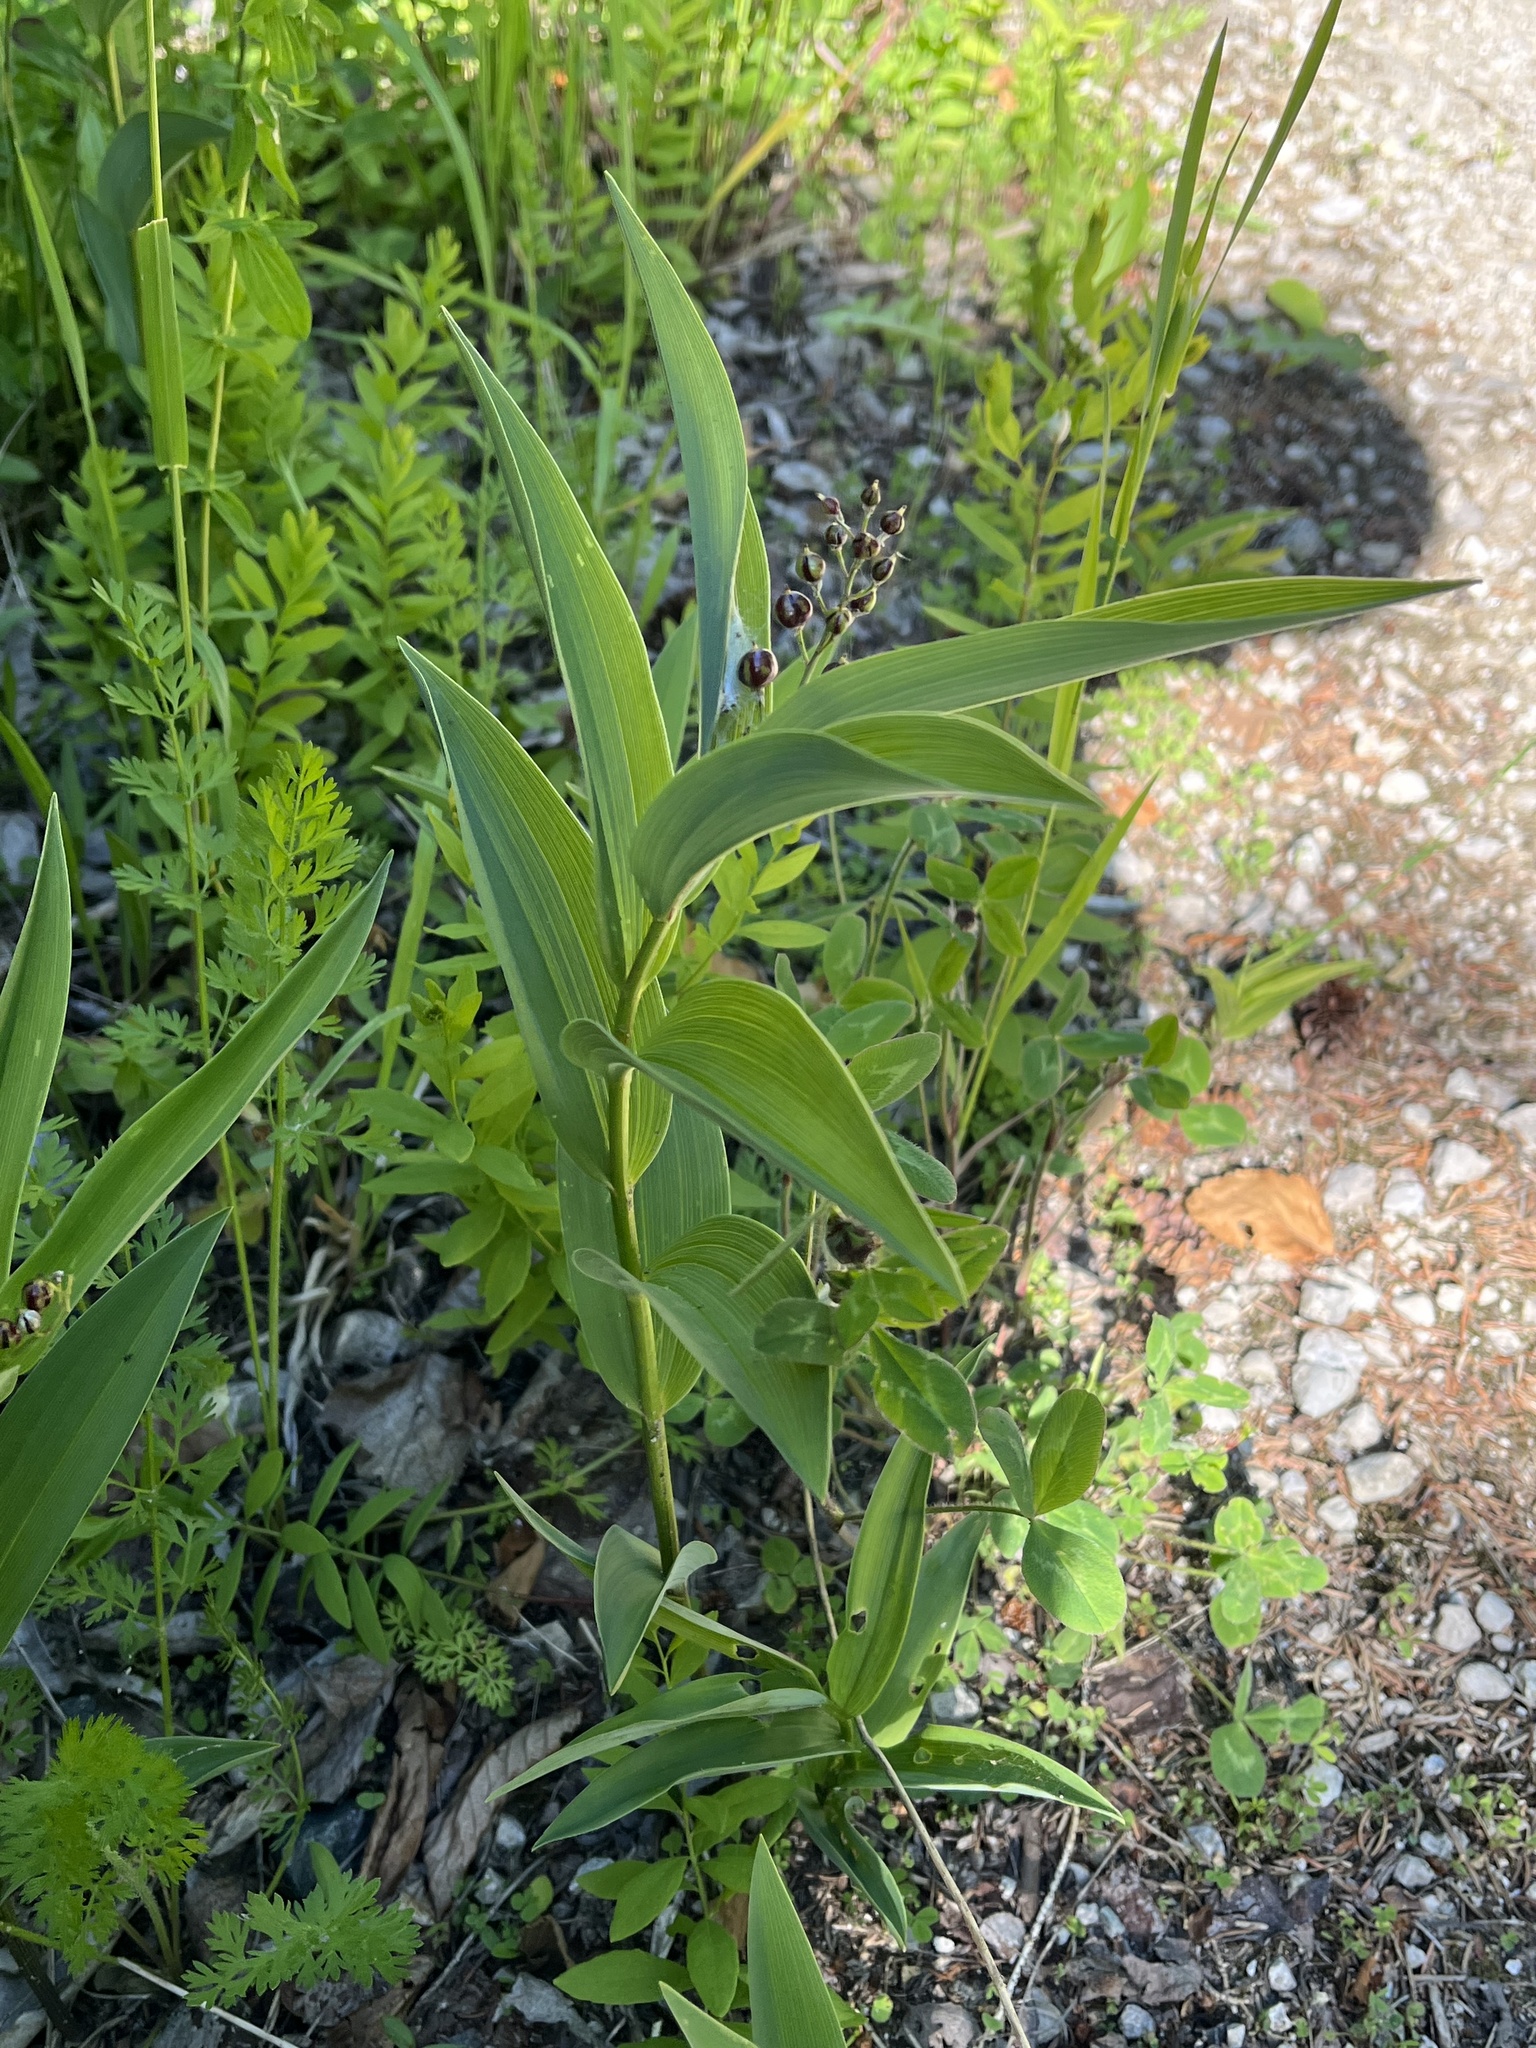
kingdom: Plantae
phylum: Tracheophyta
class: Liliopsida
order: Asparagales
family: Asparagaceae
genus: Maianthemum
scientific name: Maianthemum stellatum
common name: Little false solomon's seal
